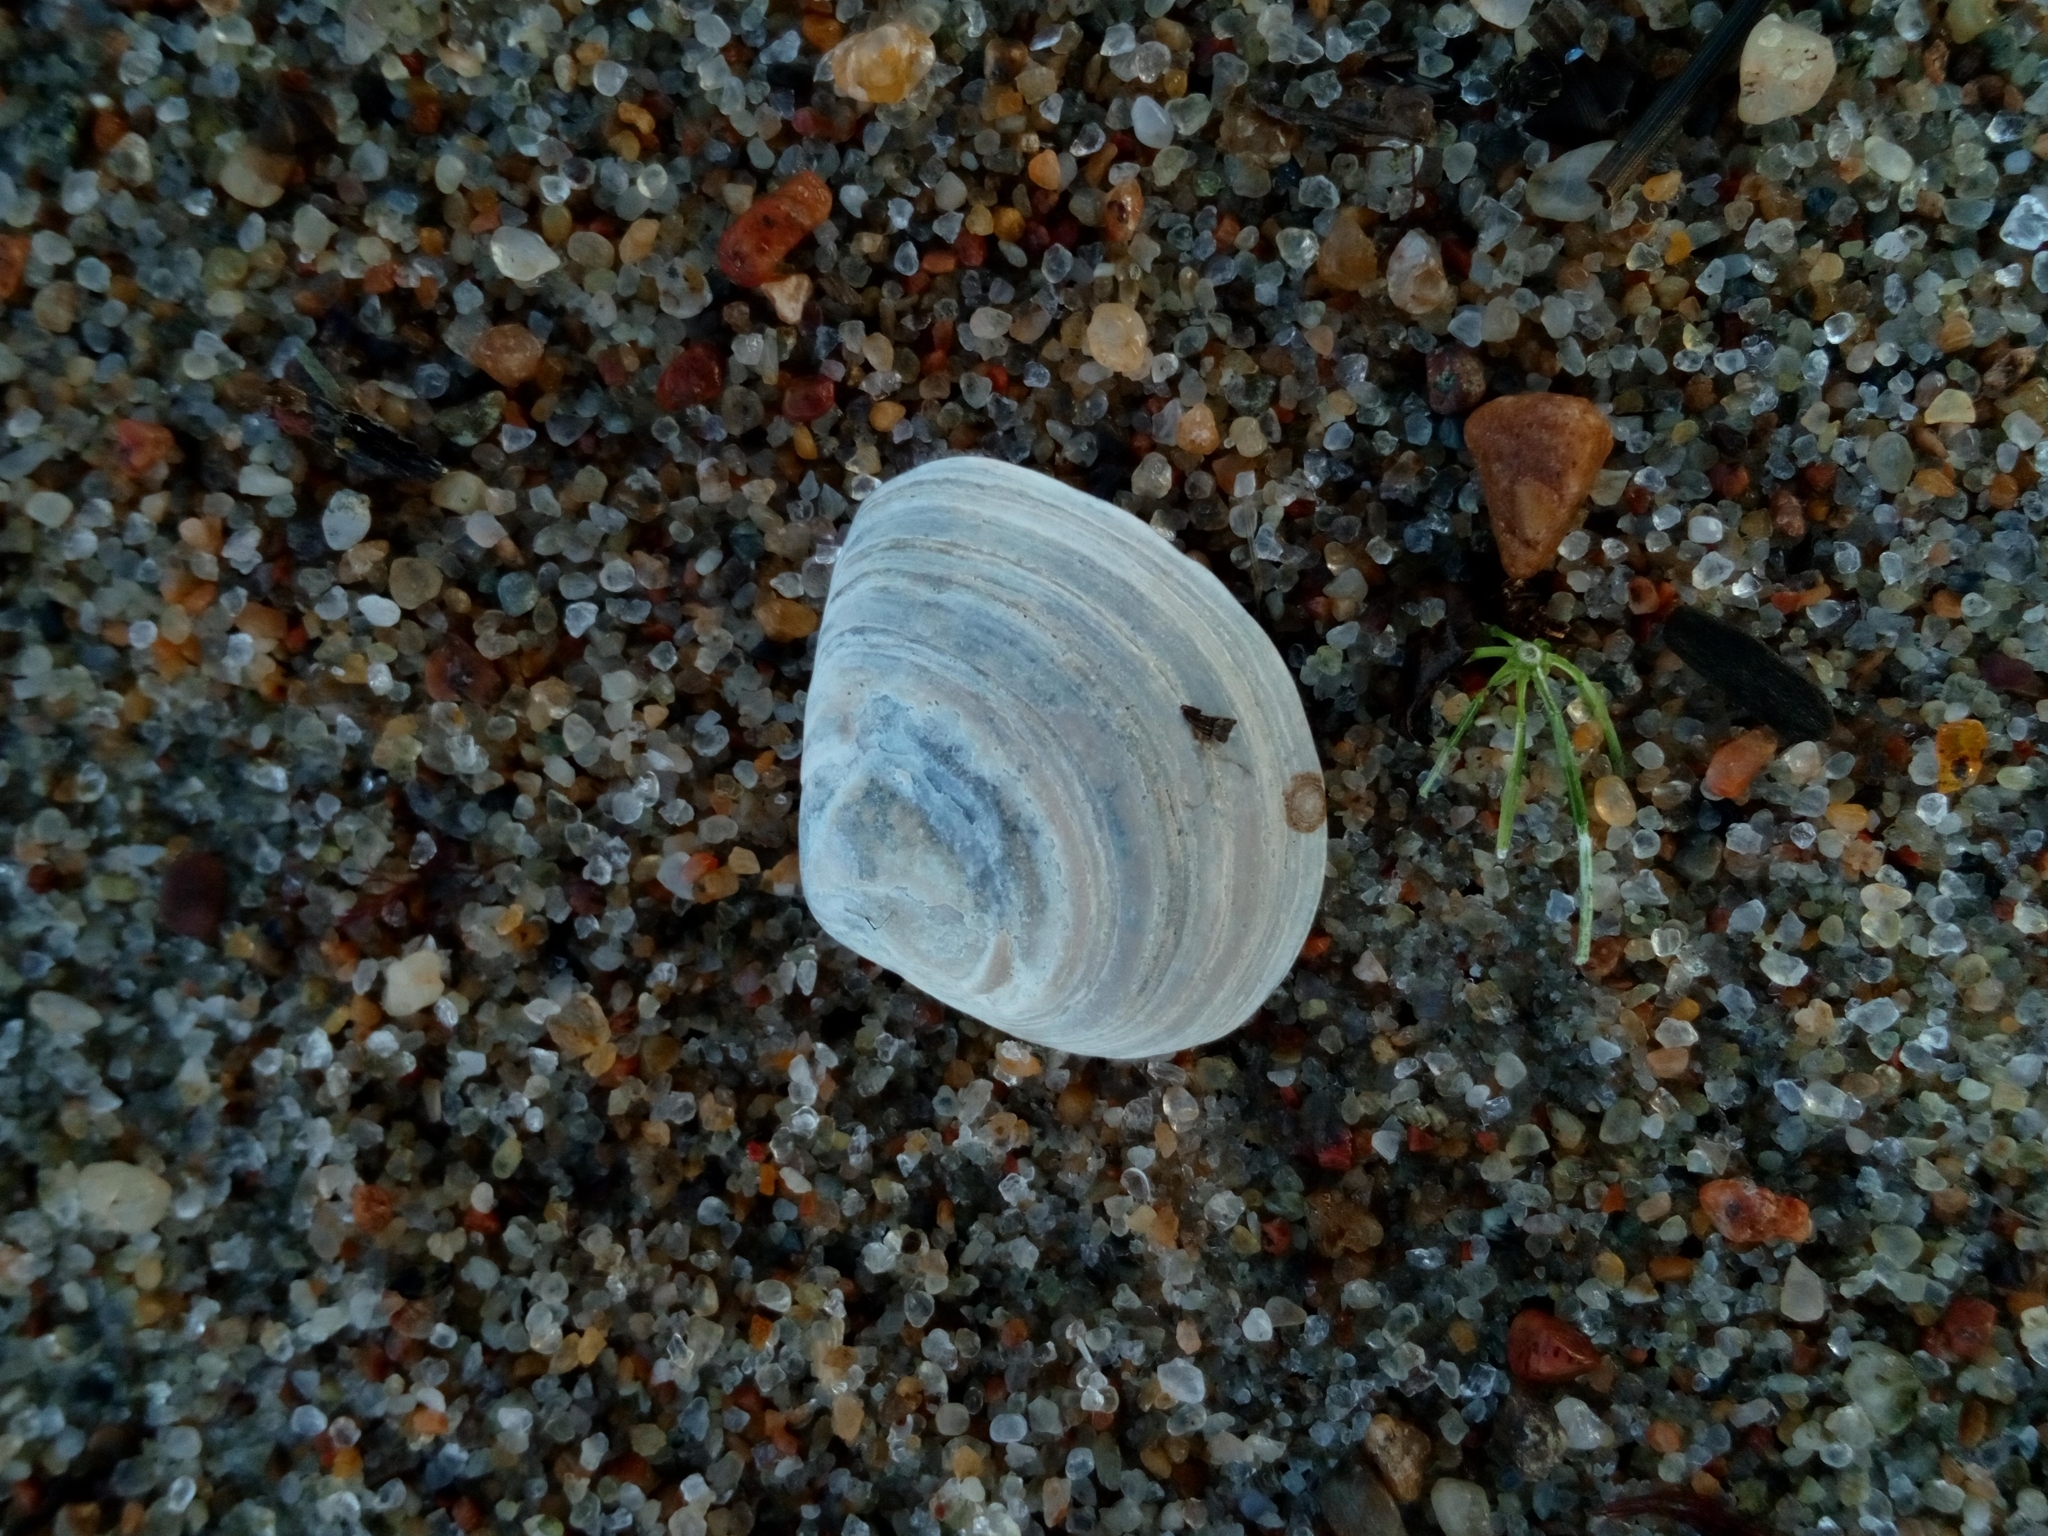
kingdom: Animalia
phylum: Mollusca
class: Bivalvia
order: Cardiida
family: Tellinidae
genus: Macoma
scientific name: Macoma balthica
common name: Baltic tellin
